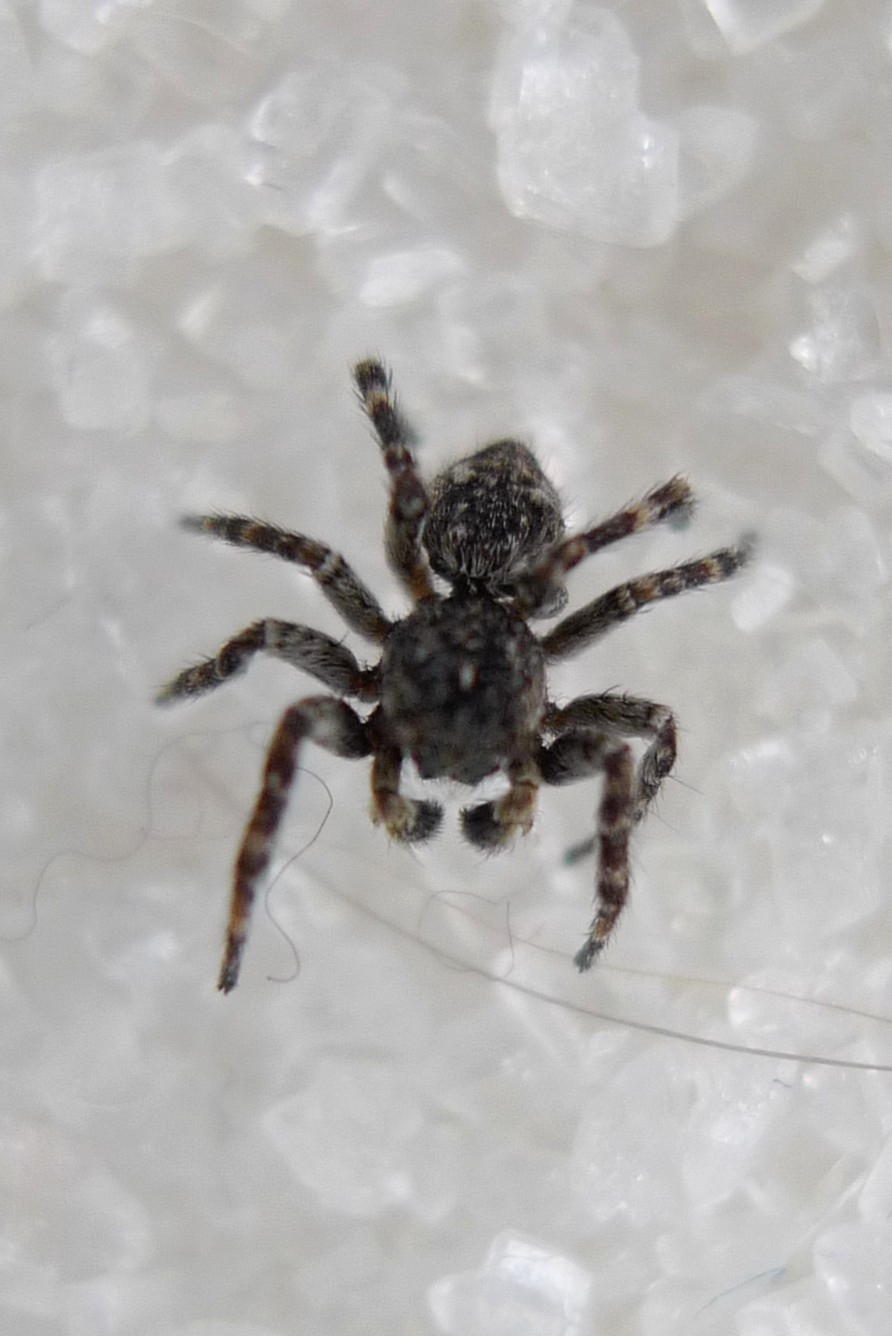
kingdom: Animalia
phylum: Arthropoda
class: Arachnida
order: Araneae
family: Salticidae
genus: Attulus
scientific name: Attulus pubescens
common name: Jumping spider
